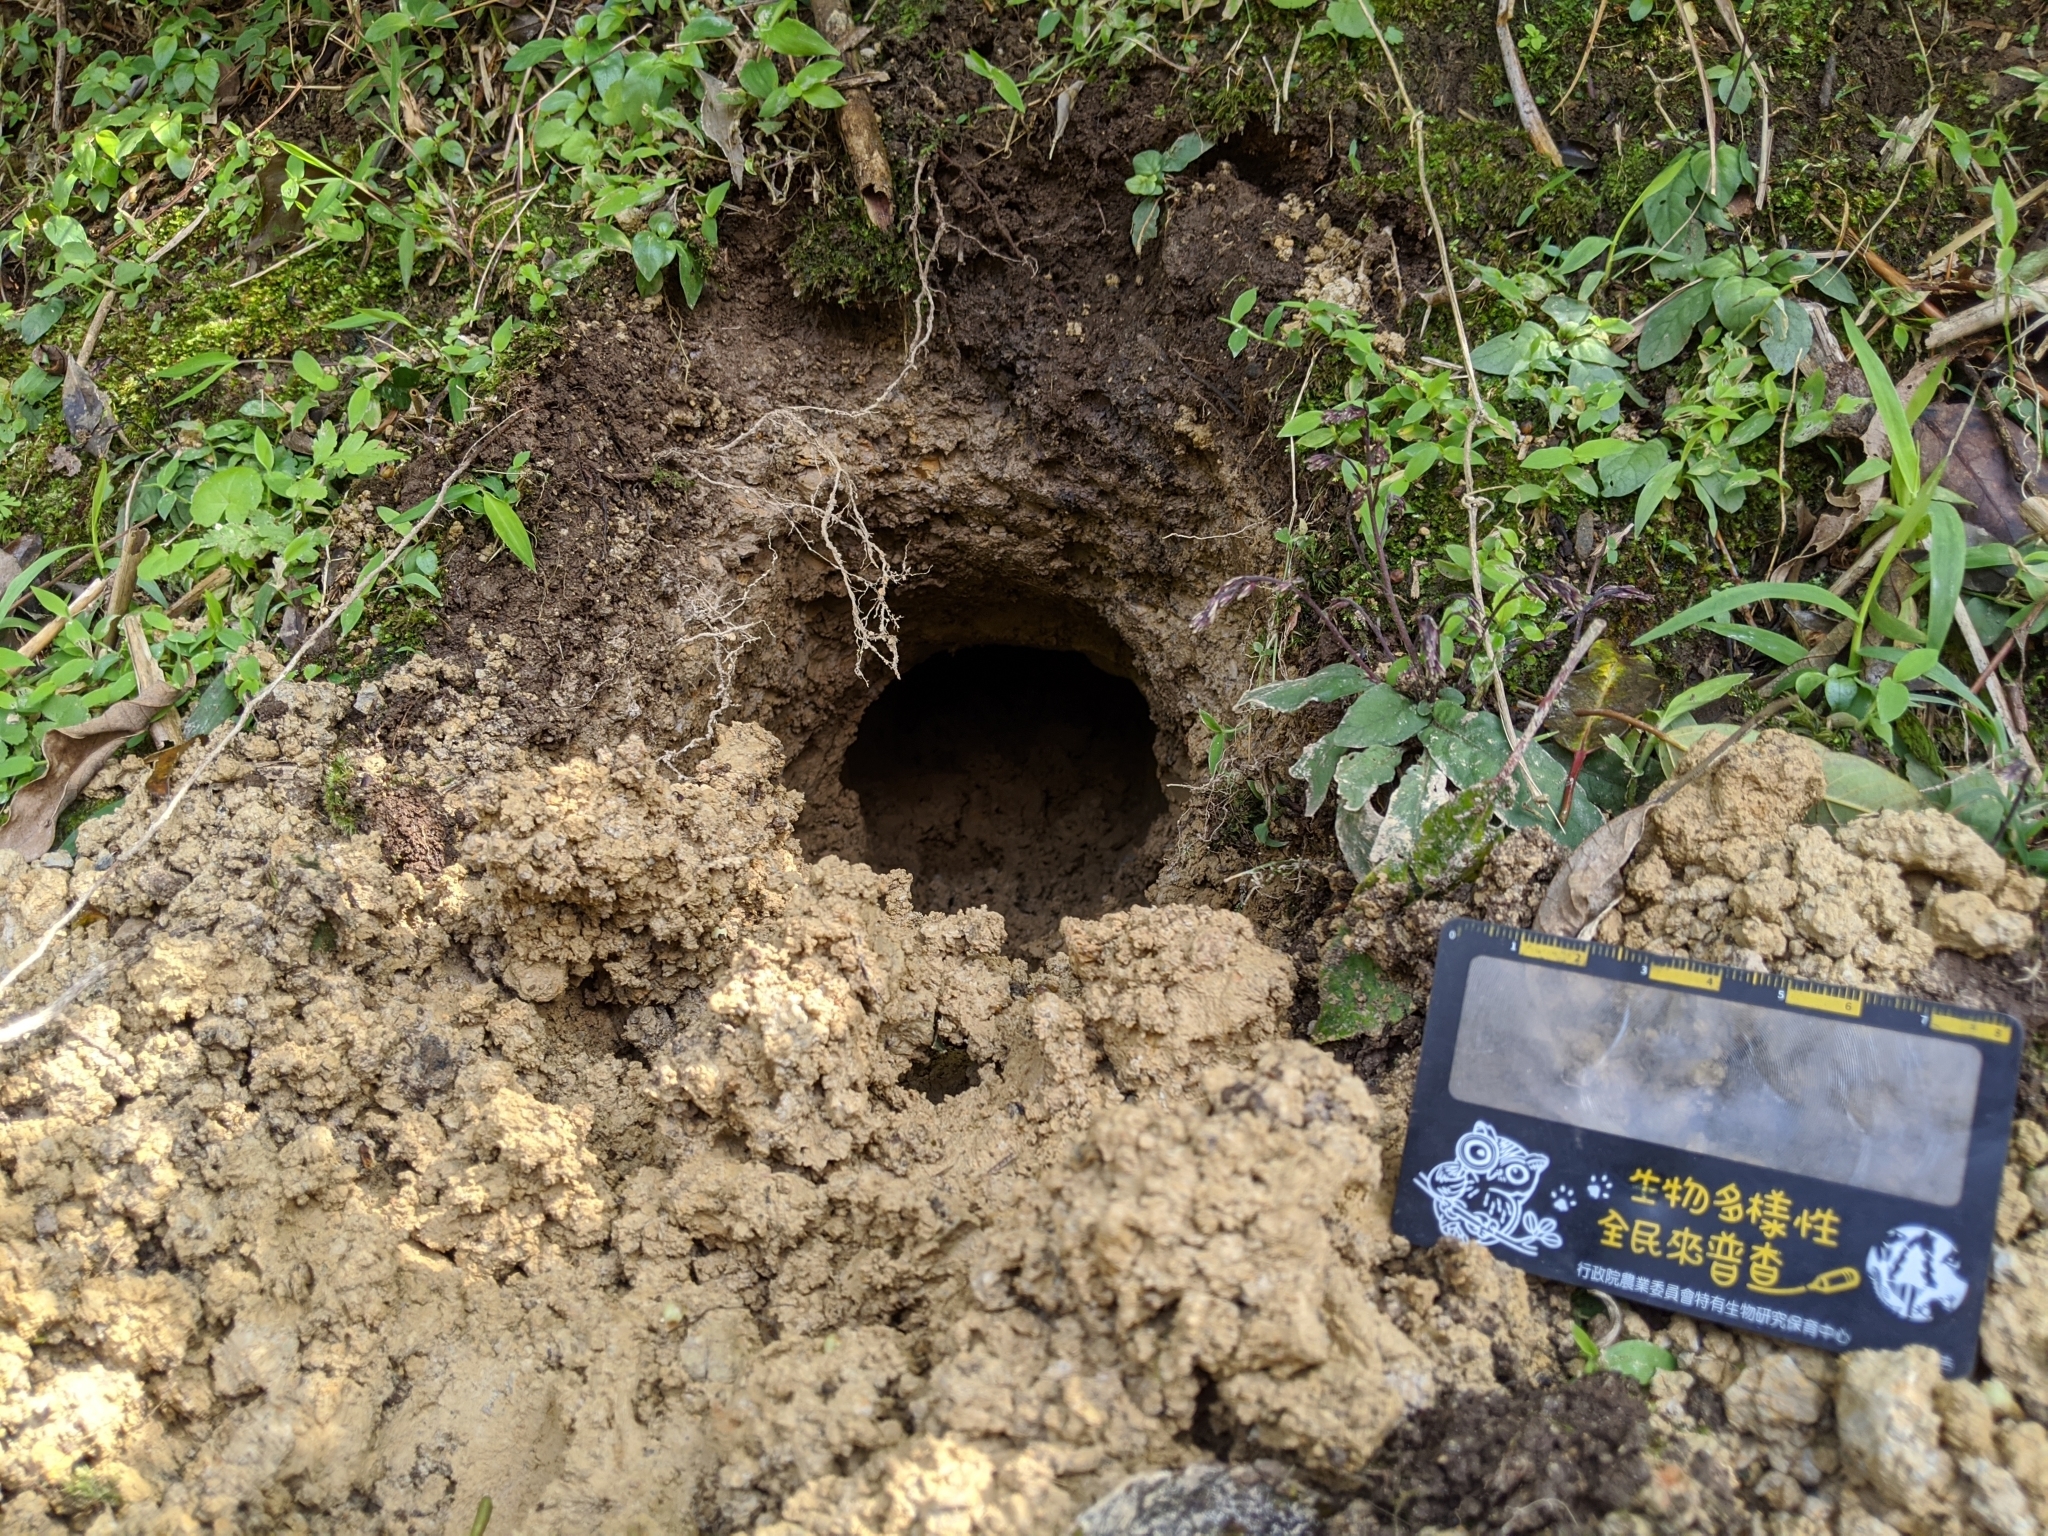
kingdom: Animalia
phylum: Chordata
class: Mammalia
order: Pholidota
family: Manidae
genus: Manis
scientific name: Manis pentadactyla
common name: Chinese pangolin
